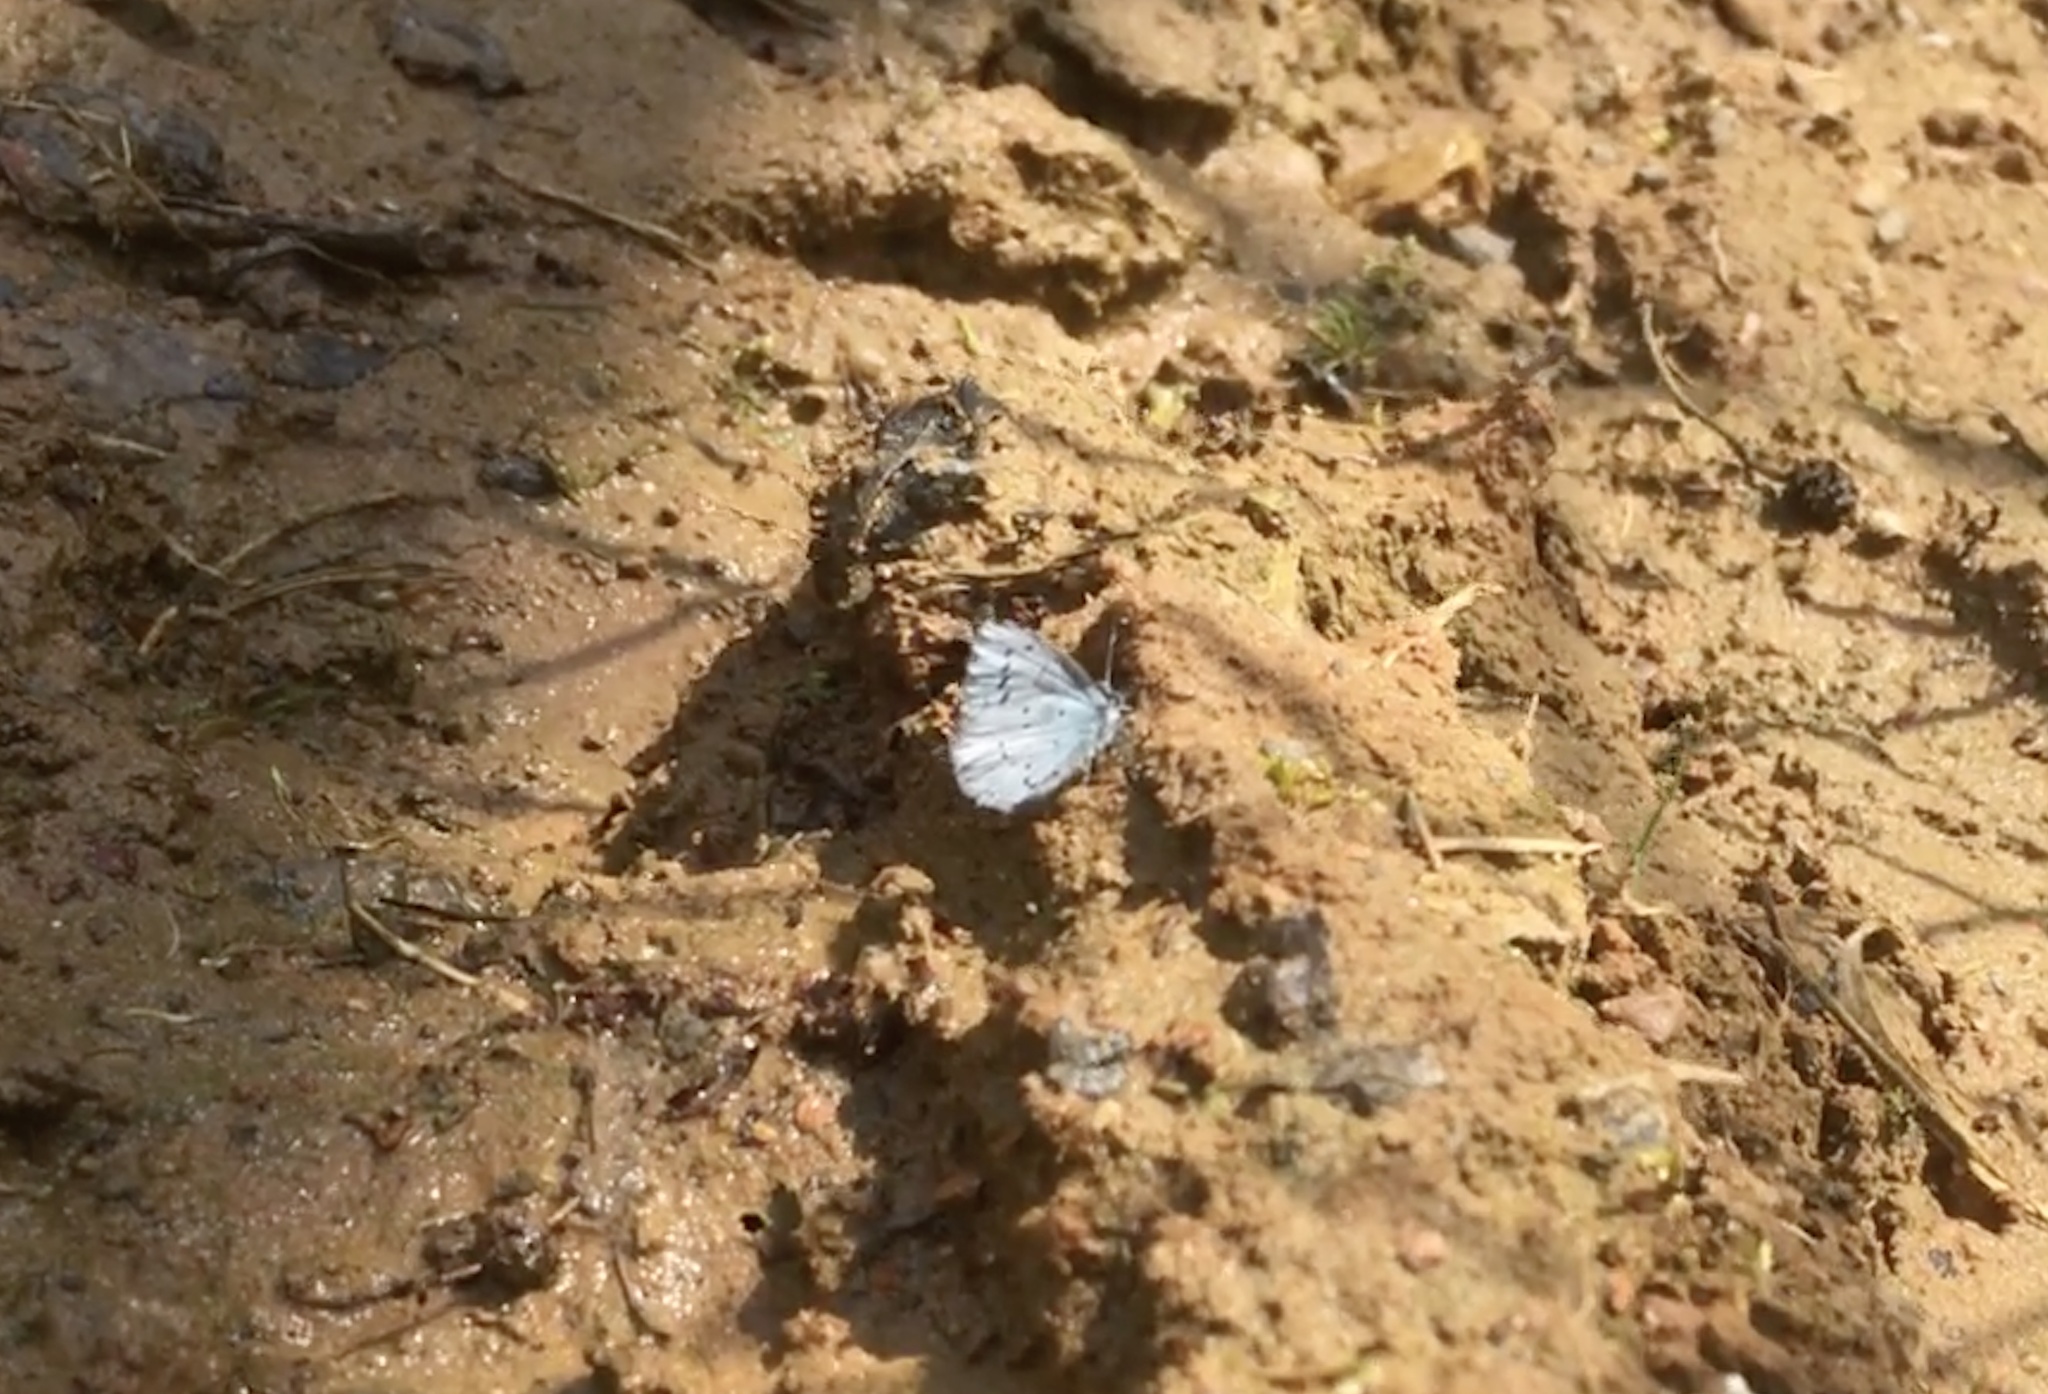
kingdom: Animalia
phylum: Arthropoda
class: Insecta
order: Lepidoptera
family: Lycaenidae
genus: Celastrina
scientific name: Celastrina argiolus
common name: Holly blue
